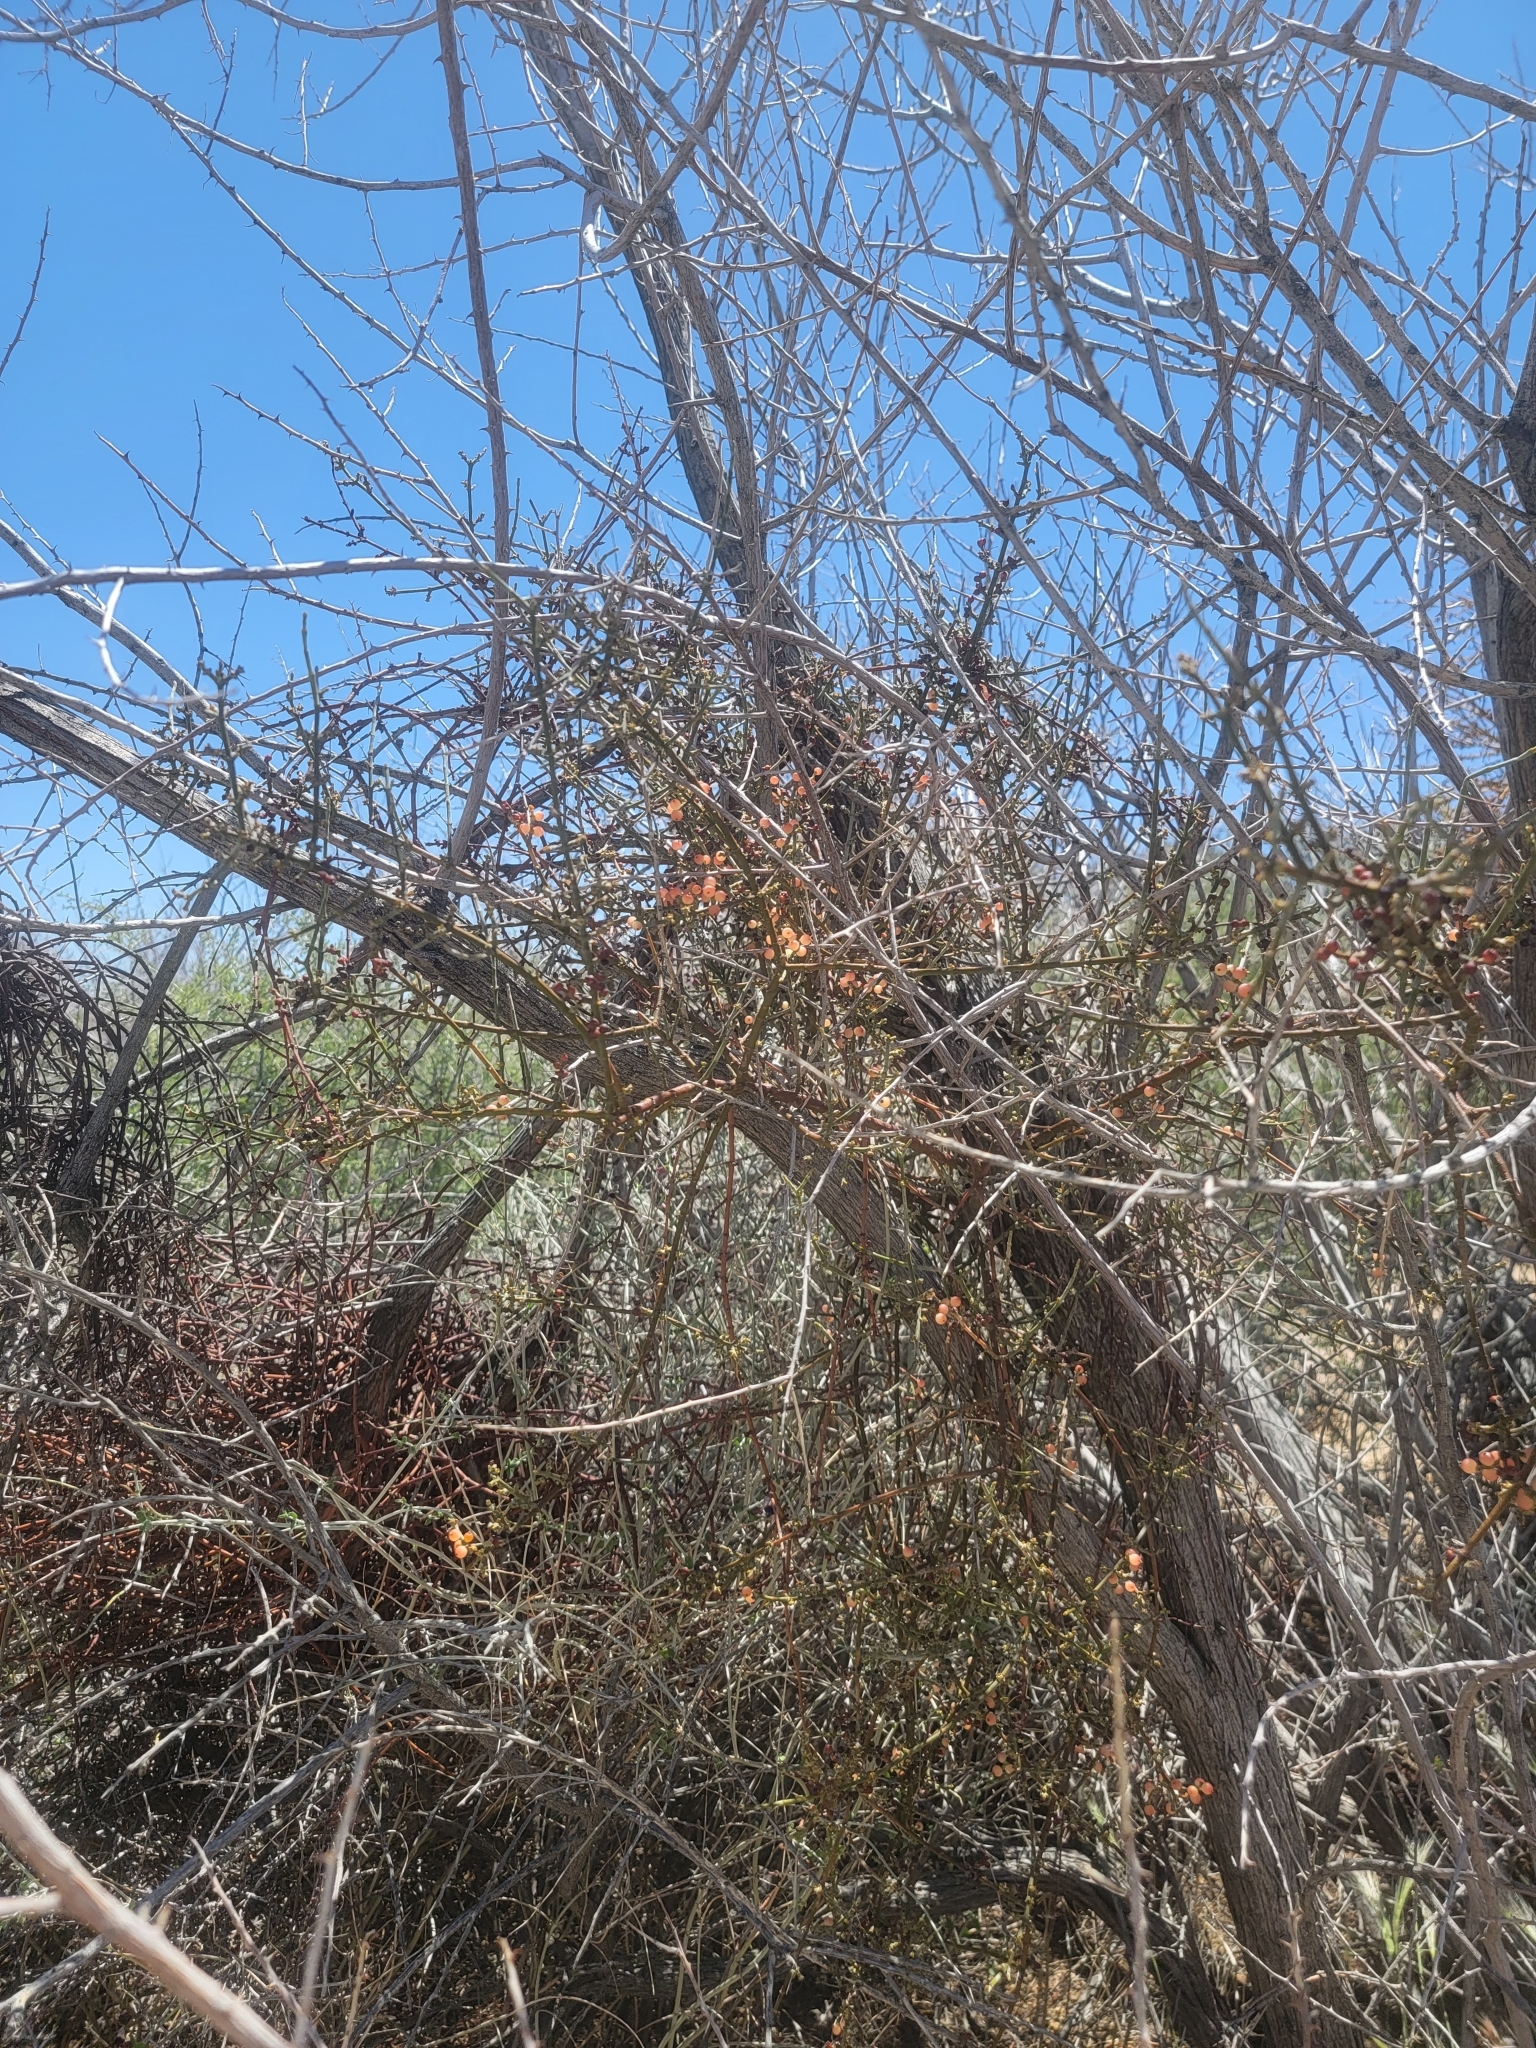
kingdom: Plantae
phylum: Tracheophyta
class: Magnoliopsida
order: Santalales
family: Viscaceae
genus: Phoradendron
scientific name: Phoradendron californicum
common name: Acacia mistletoe
